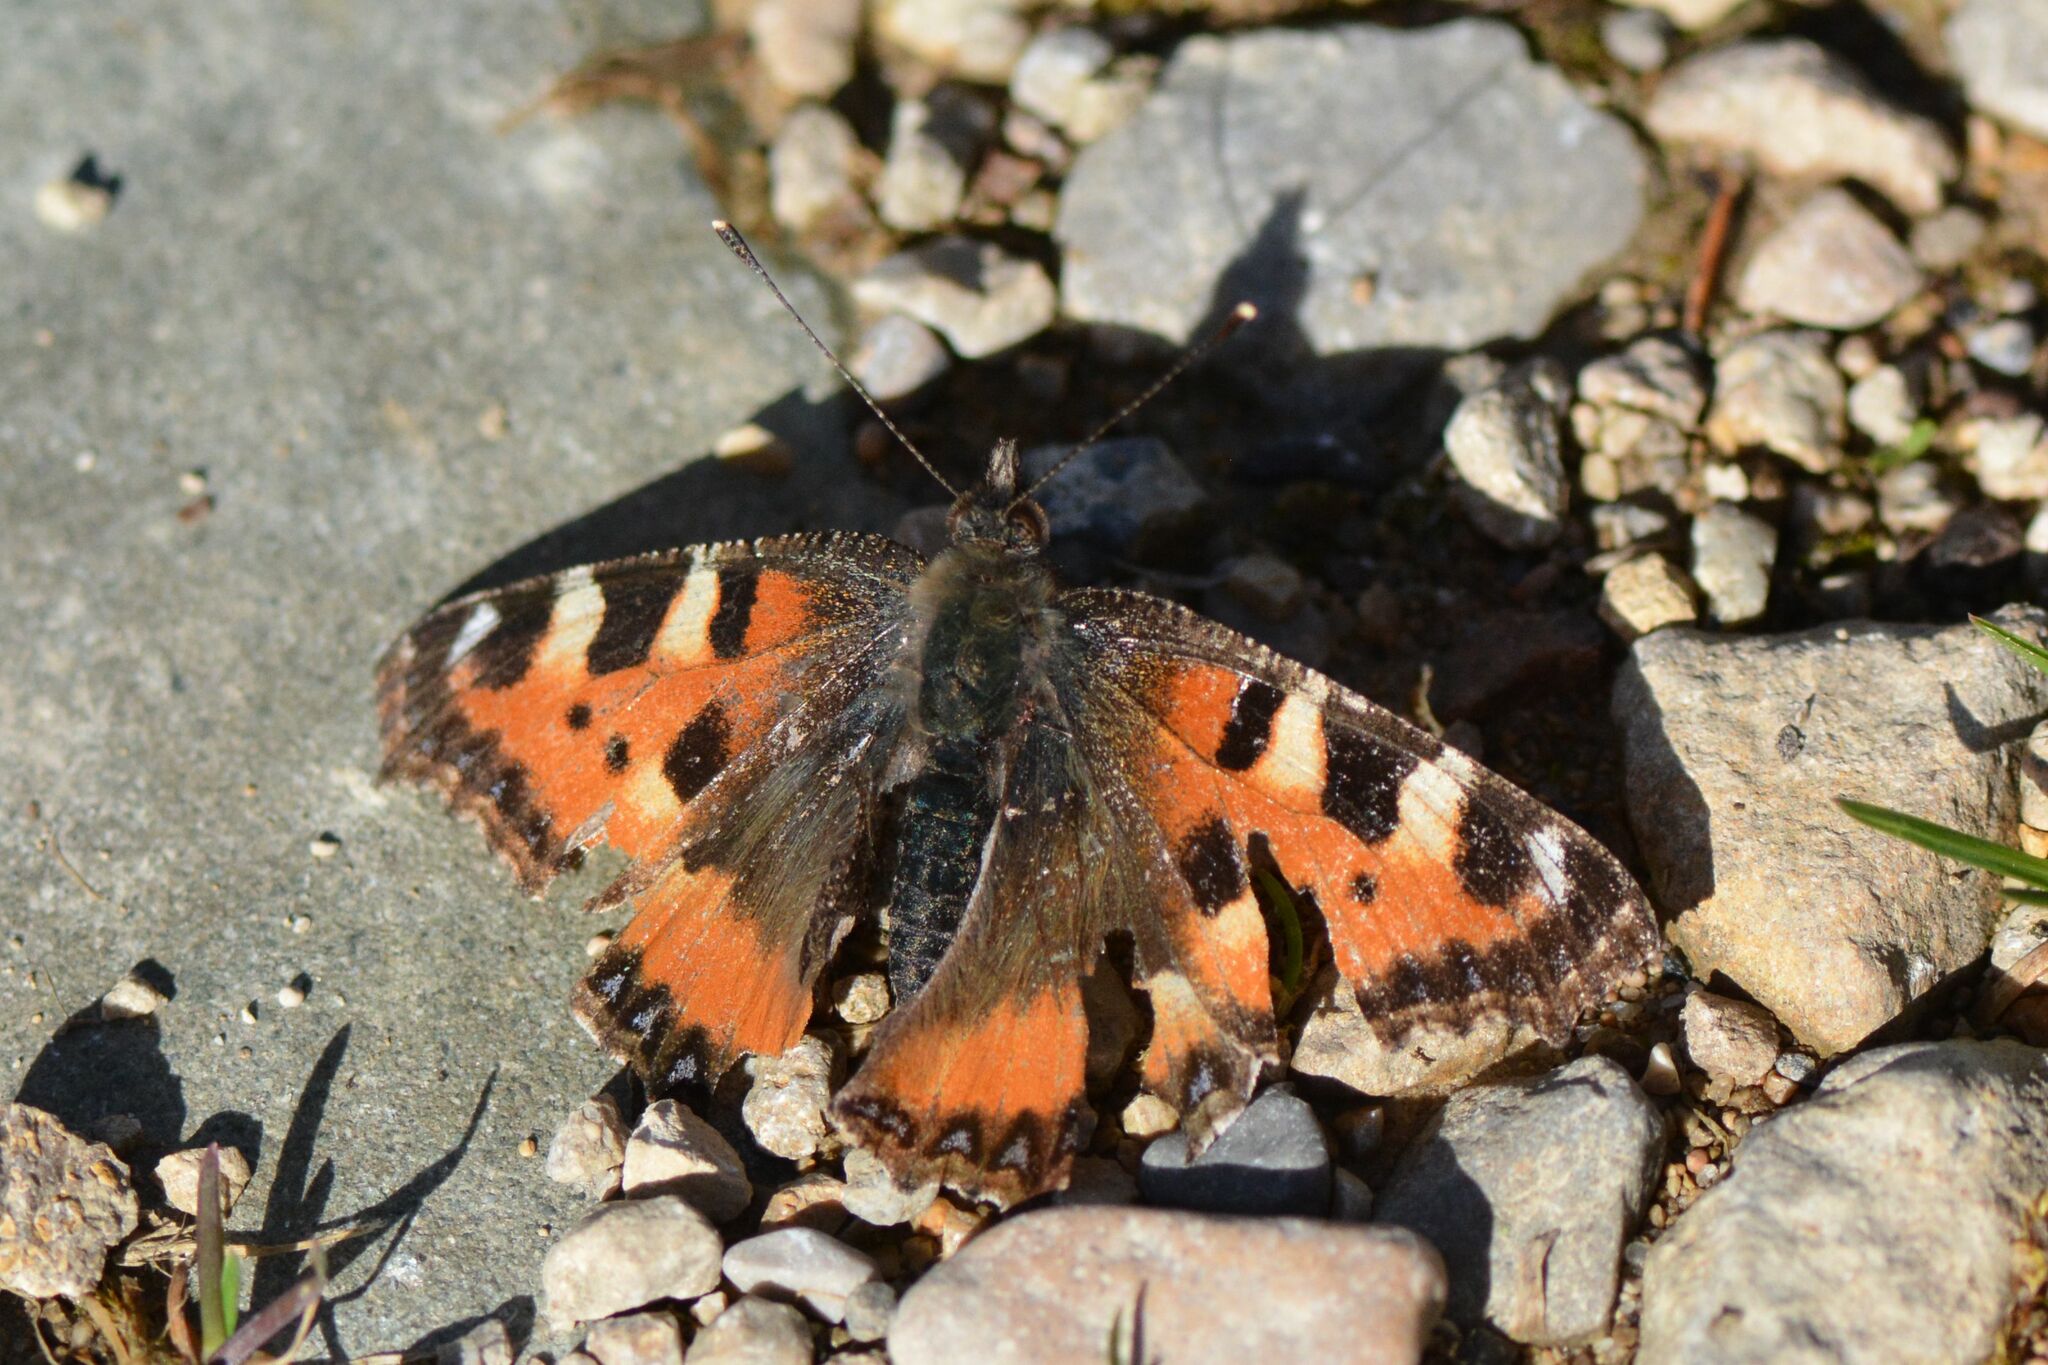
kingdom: Animalia
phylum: Arthropoda
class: Insecta
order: Lepidoptera
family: Nymphalidae
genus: Aglais
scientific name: Aglais urticae
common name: Small tortoiseshell
